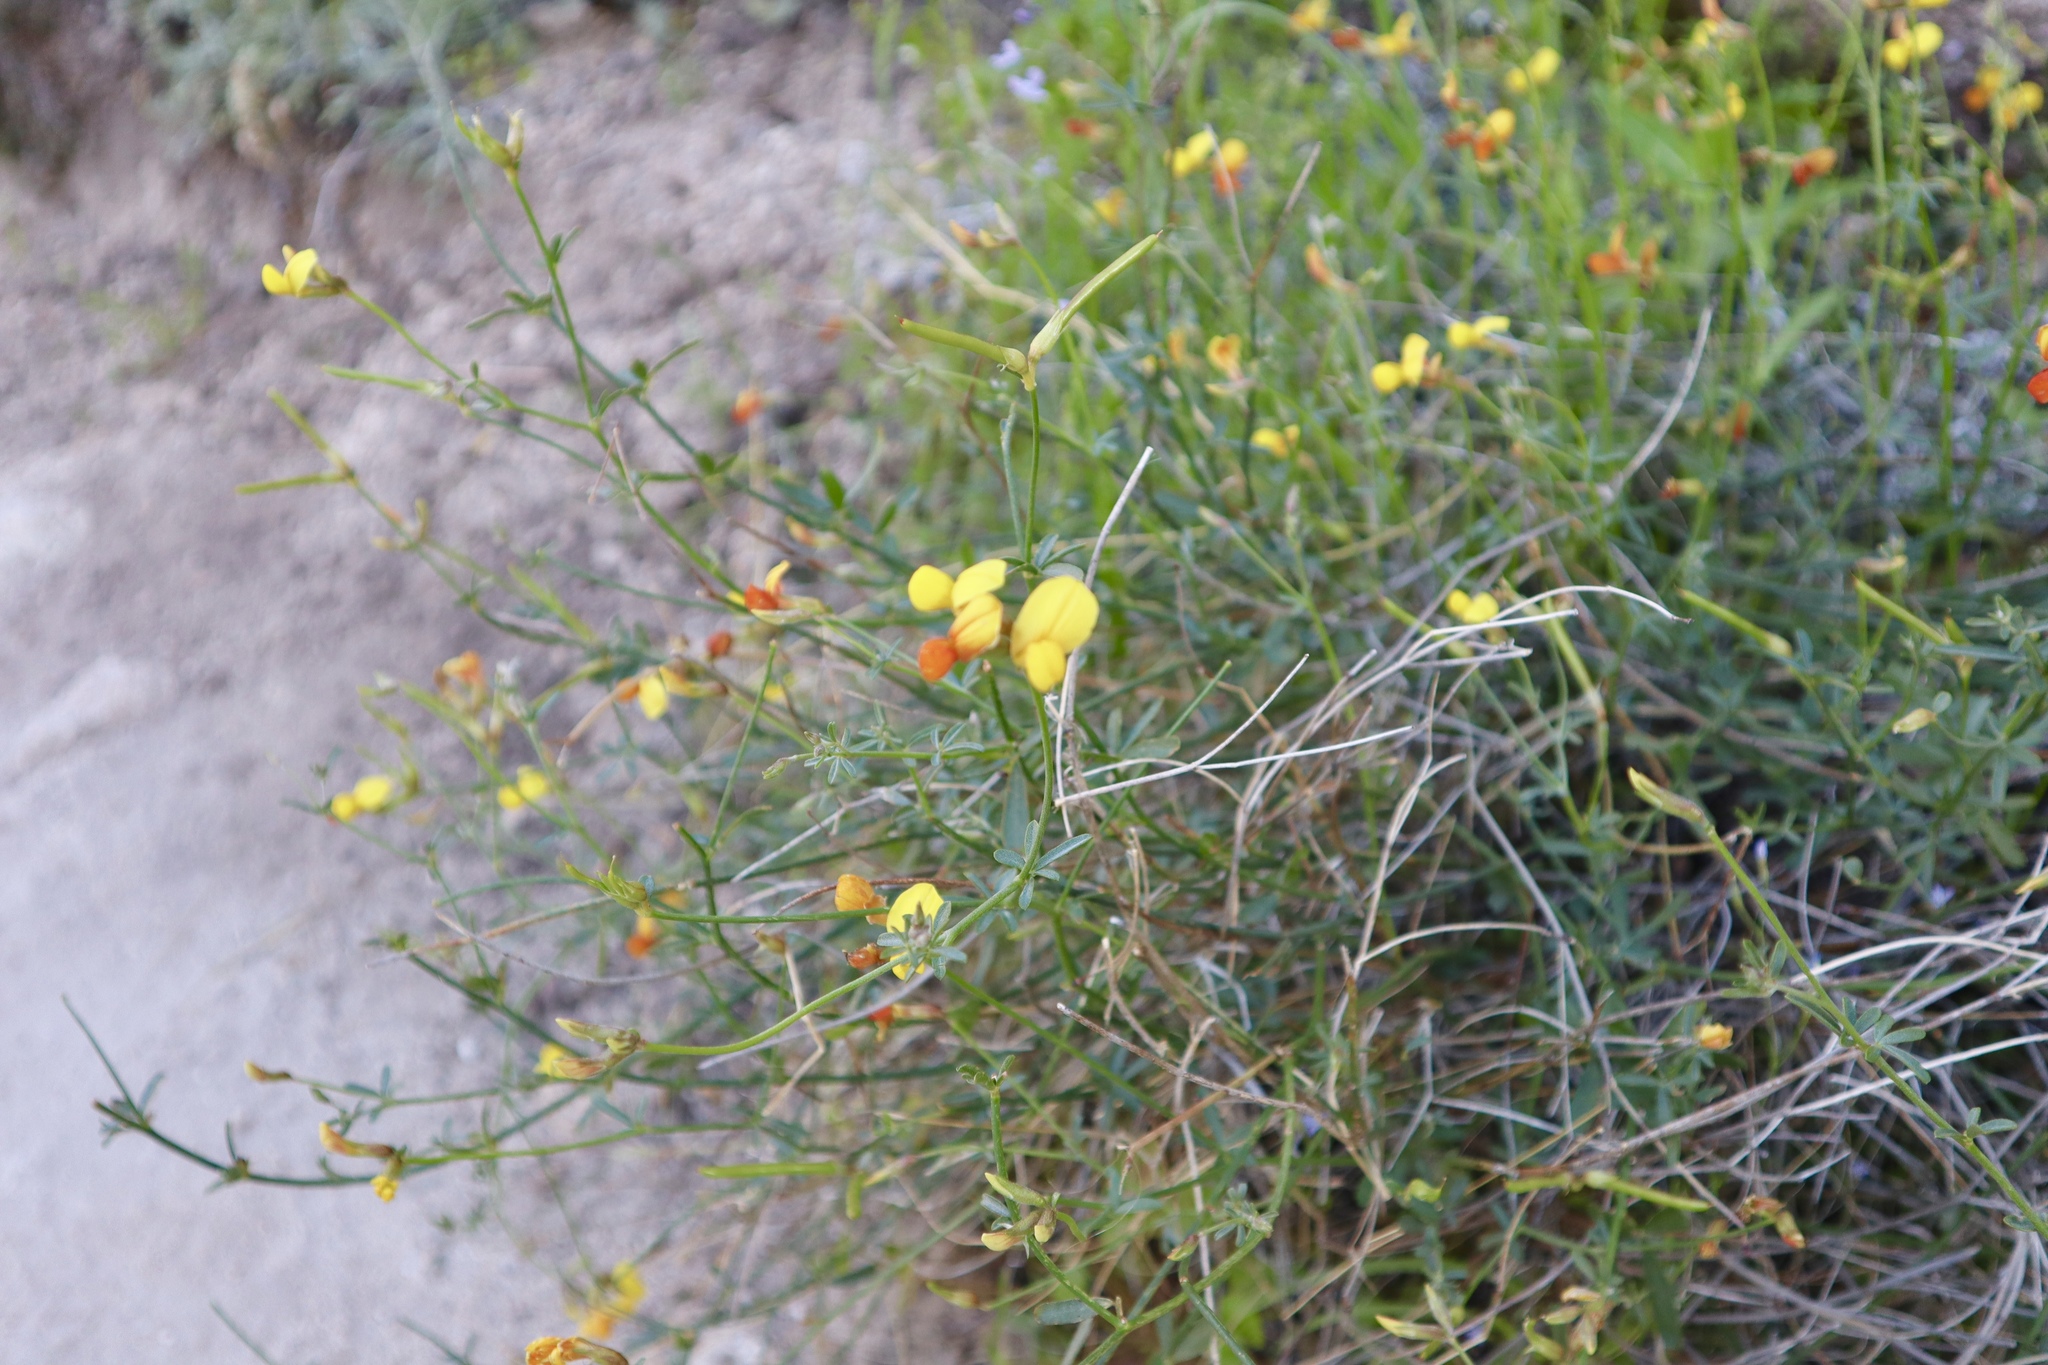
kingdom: Plantae
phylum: Tracheophyta
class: Magnoliopsida
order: Fabales
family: Fabaceae
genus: Acmispon
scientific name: Acmispon rigidus
